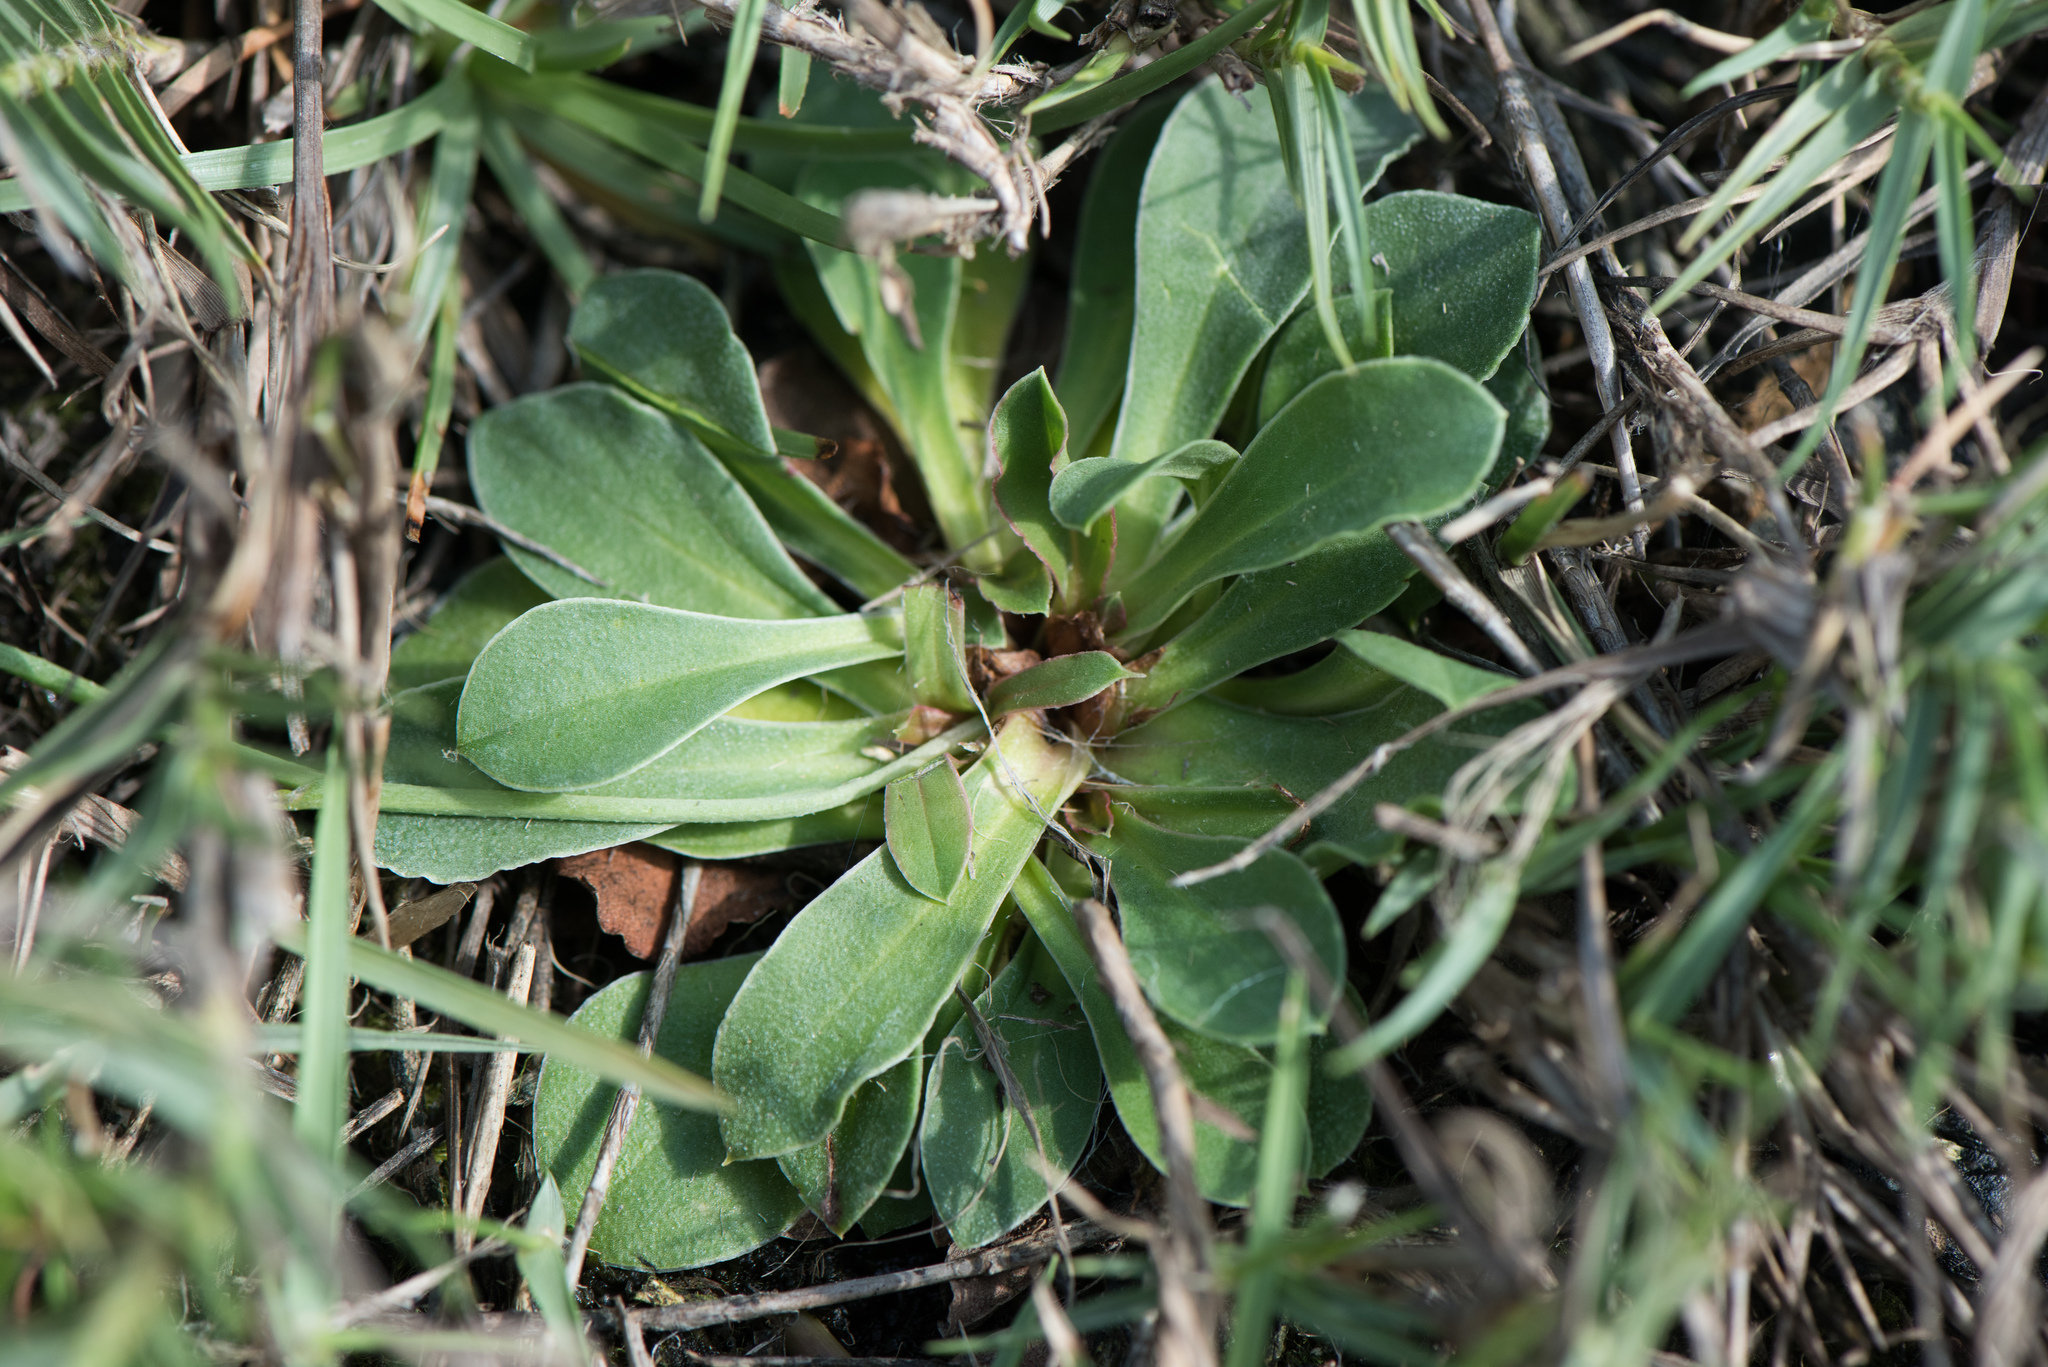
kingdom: Plantae
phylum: Tracheophyta
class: Magnoliopsida
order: Caryophyllales
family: Plumbaginaceae
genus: Limonium
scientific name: Limonium sinense
